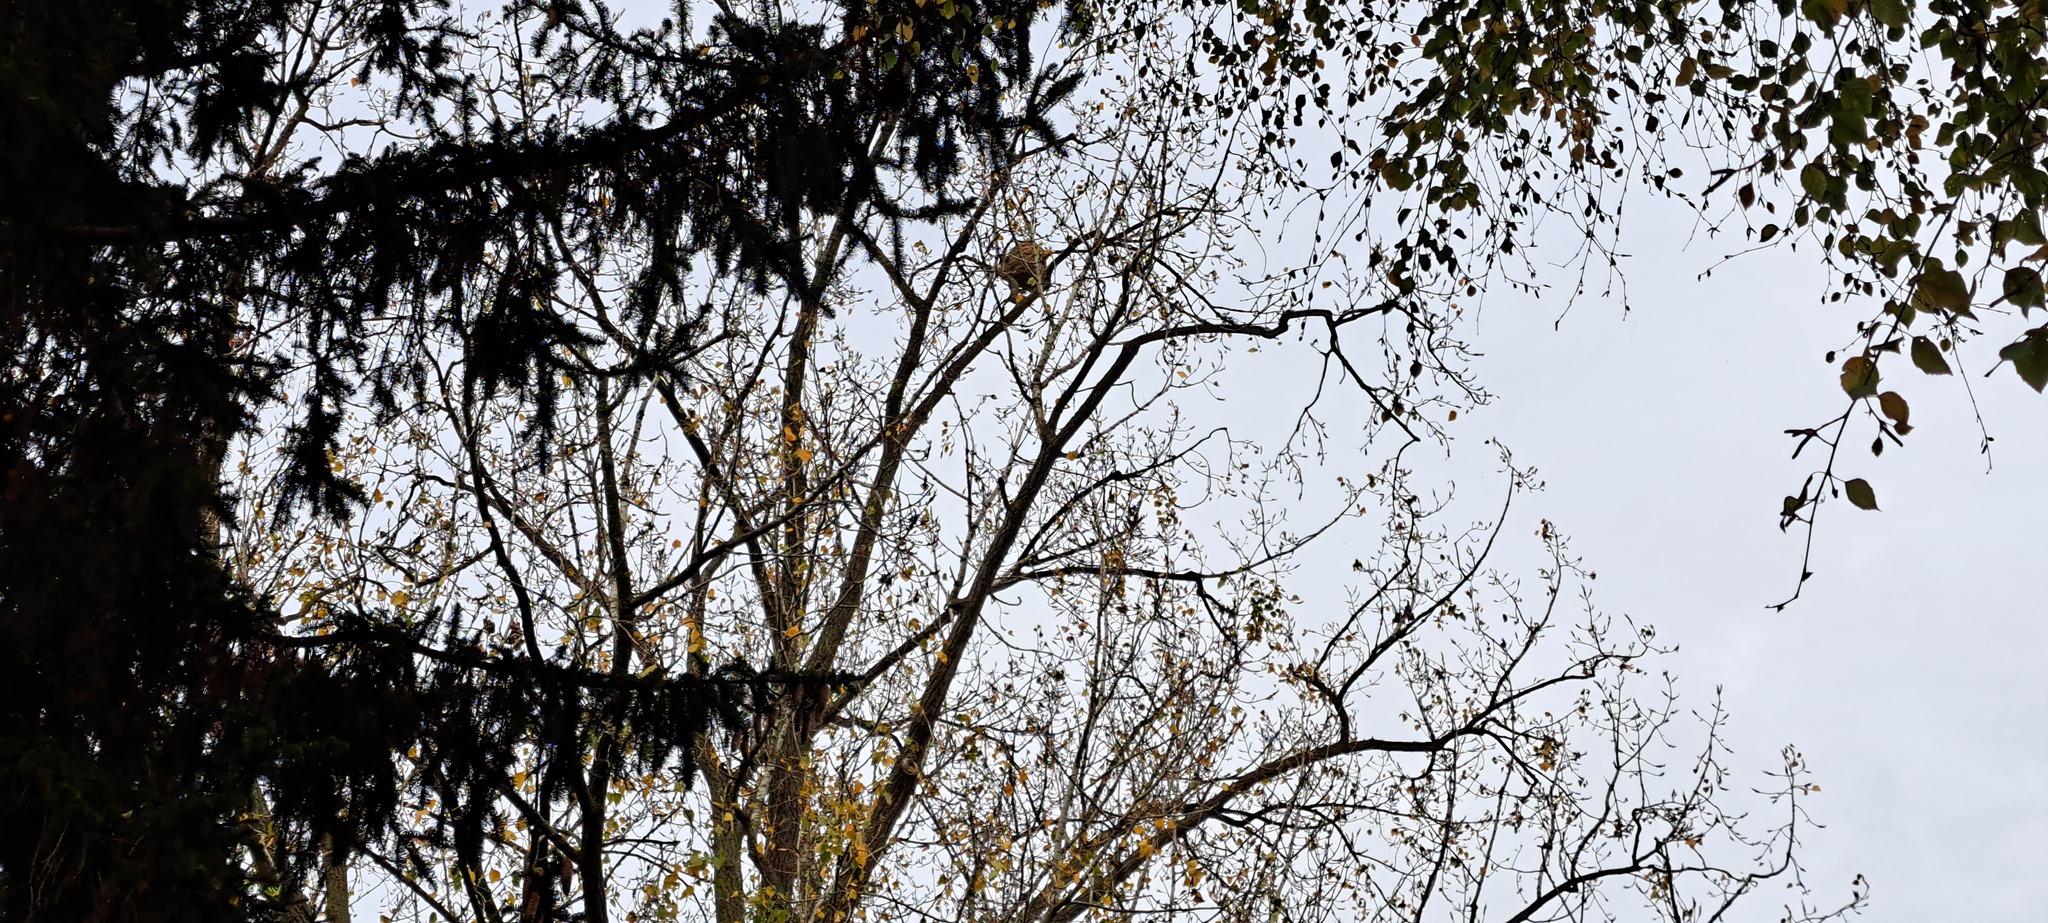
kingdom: Animalia
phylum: Arthropoda
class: Insecta
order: Hymenoptera
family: Vespidae
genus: Vespa
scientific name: Vespa velutina
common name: Asian hornet
